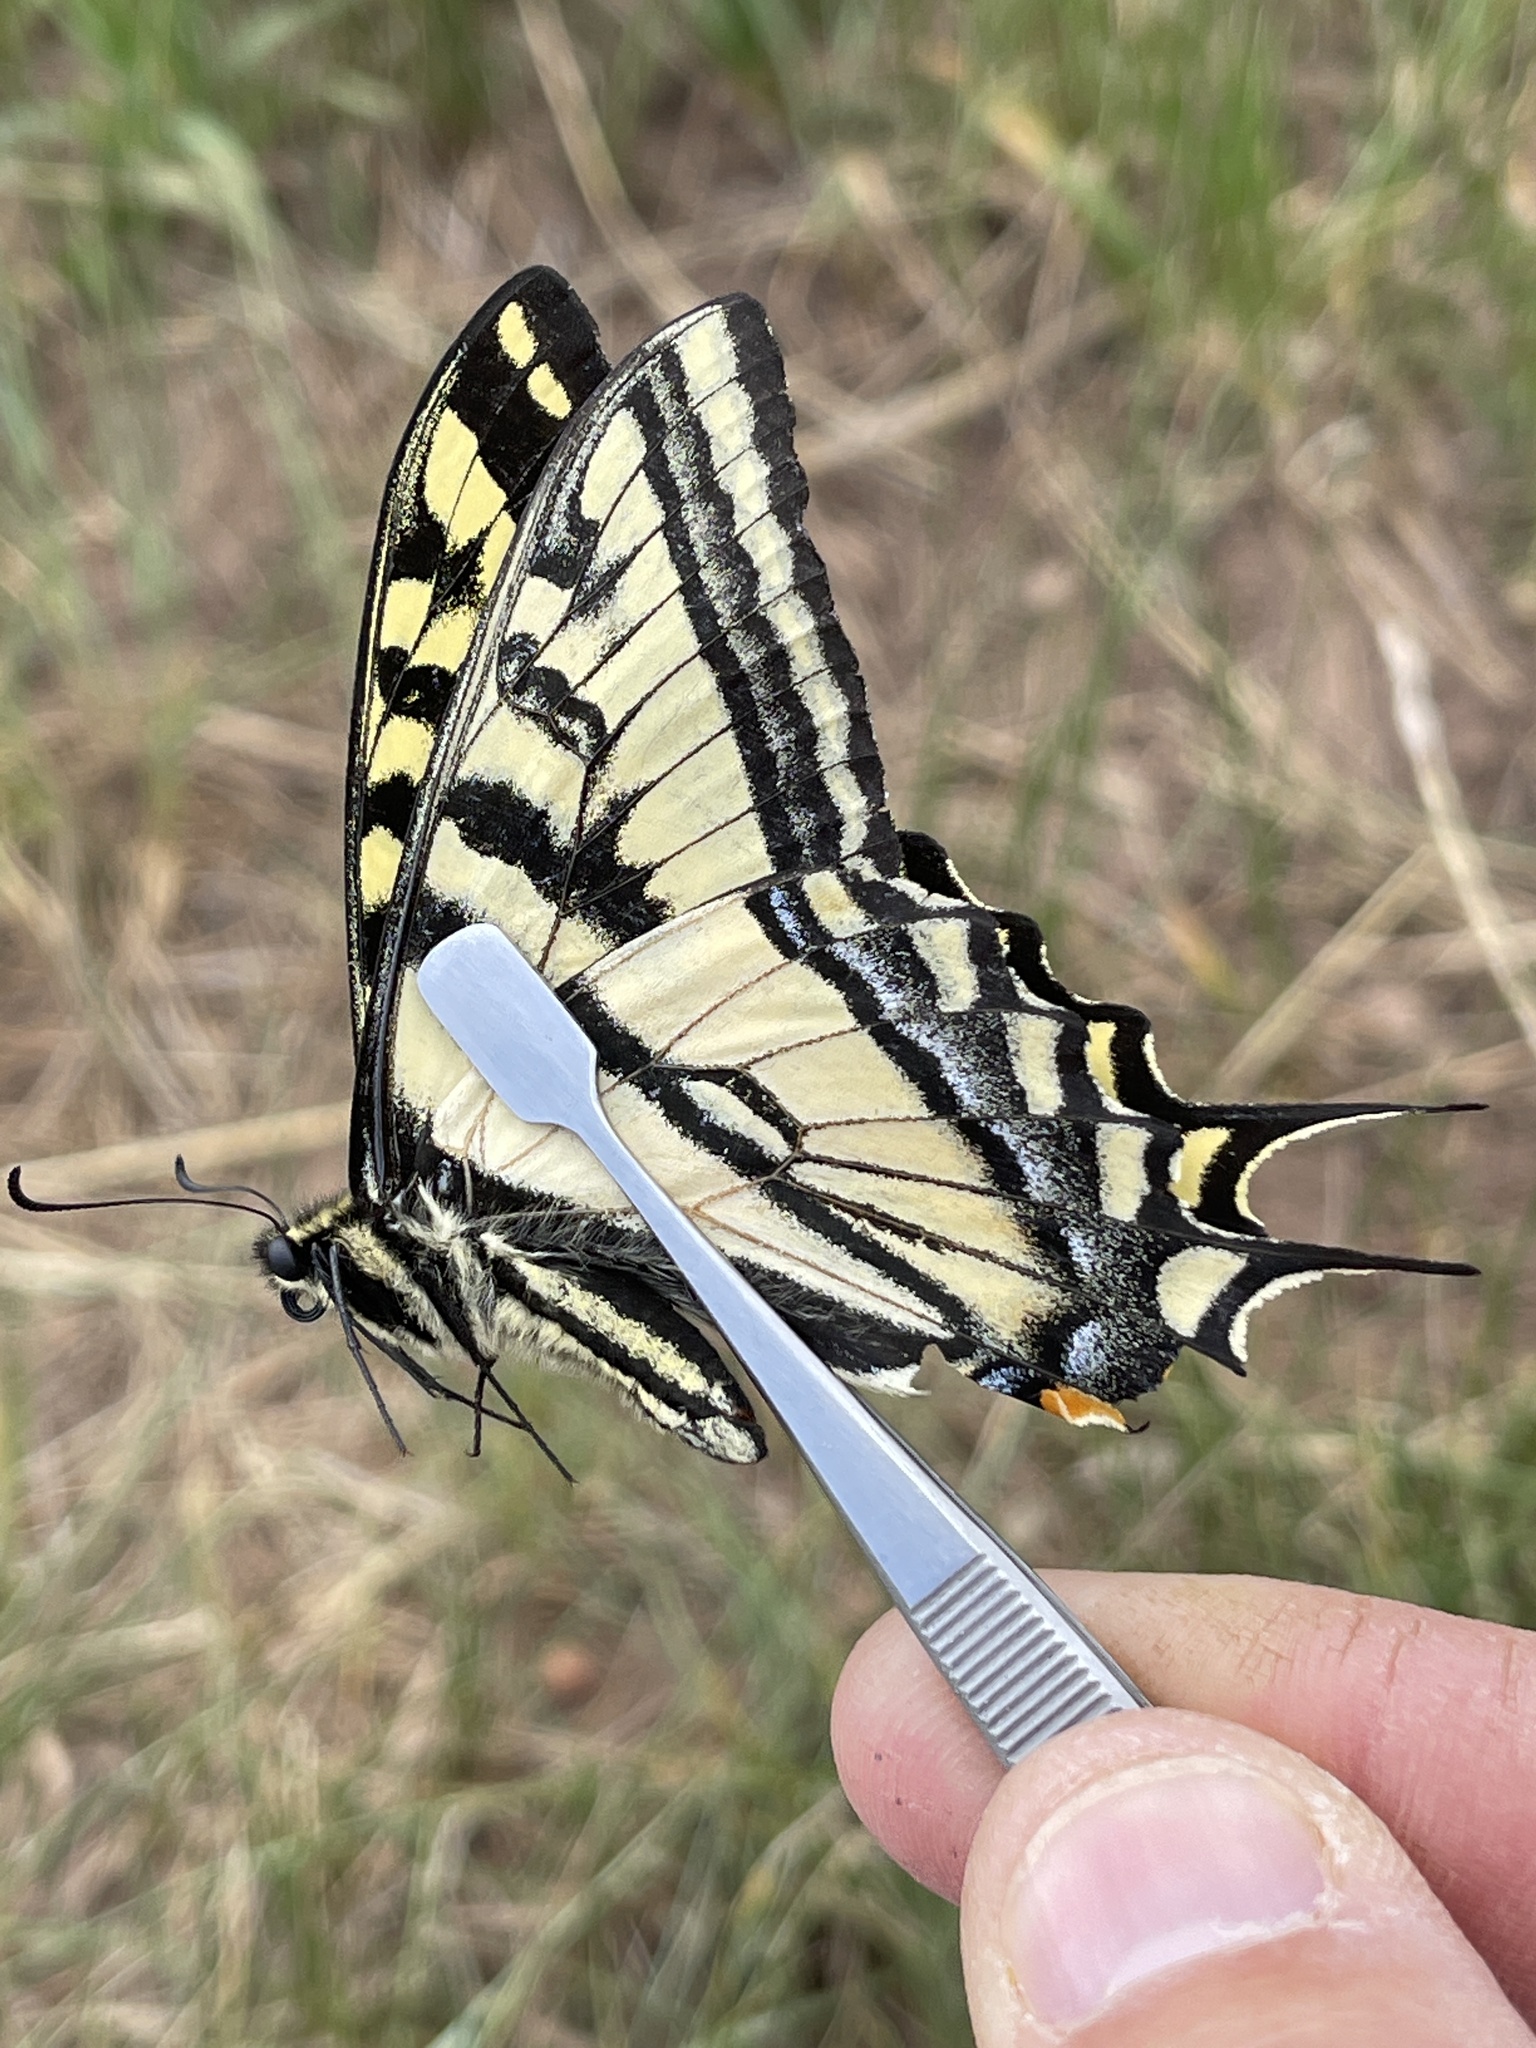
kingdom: Animalia
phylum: Arthropoda
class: Insecta
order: Lepidoptera
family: Papilionidae
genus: Papilio
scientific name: Papilio rutulus
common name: Western tiger swallowtail
